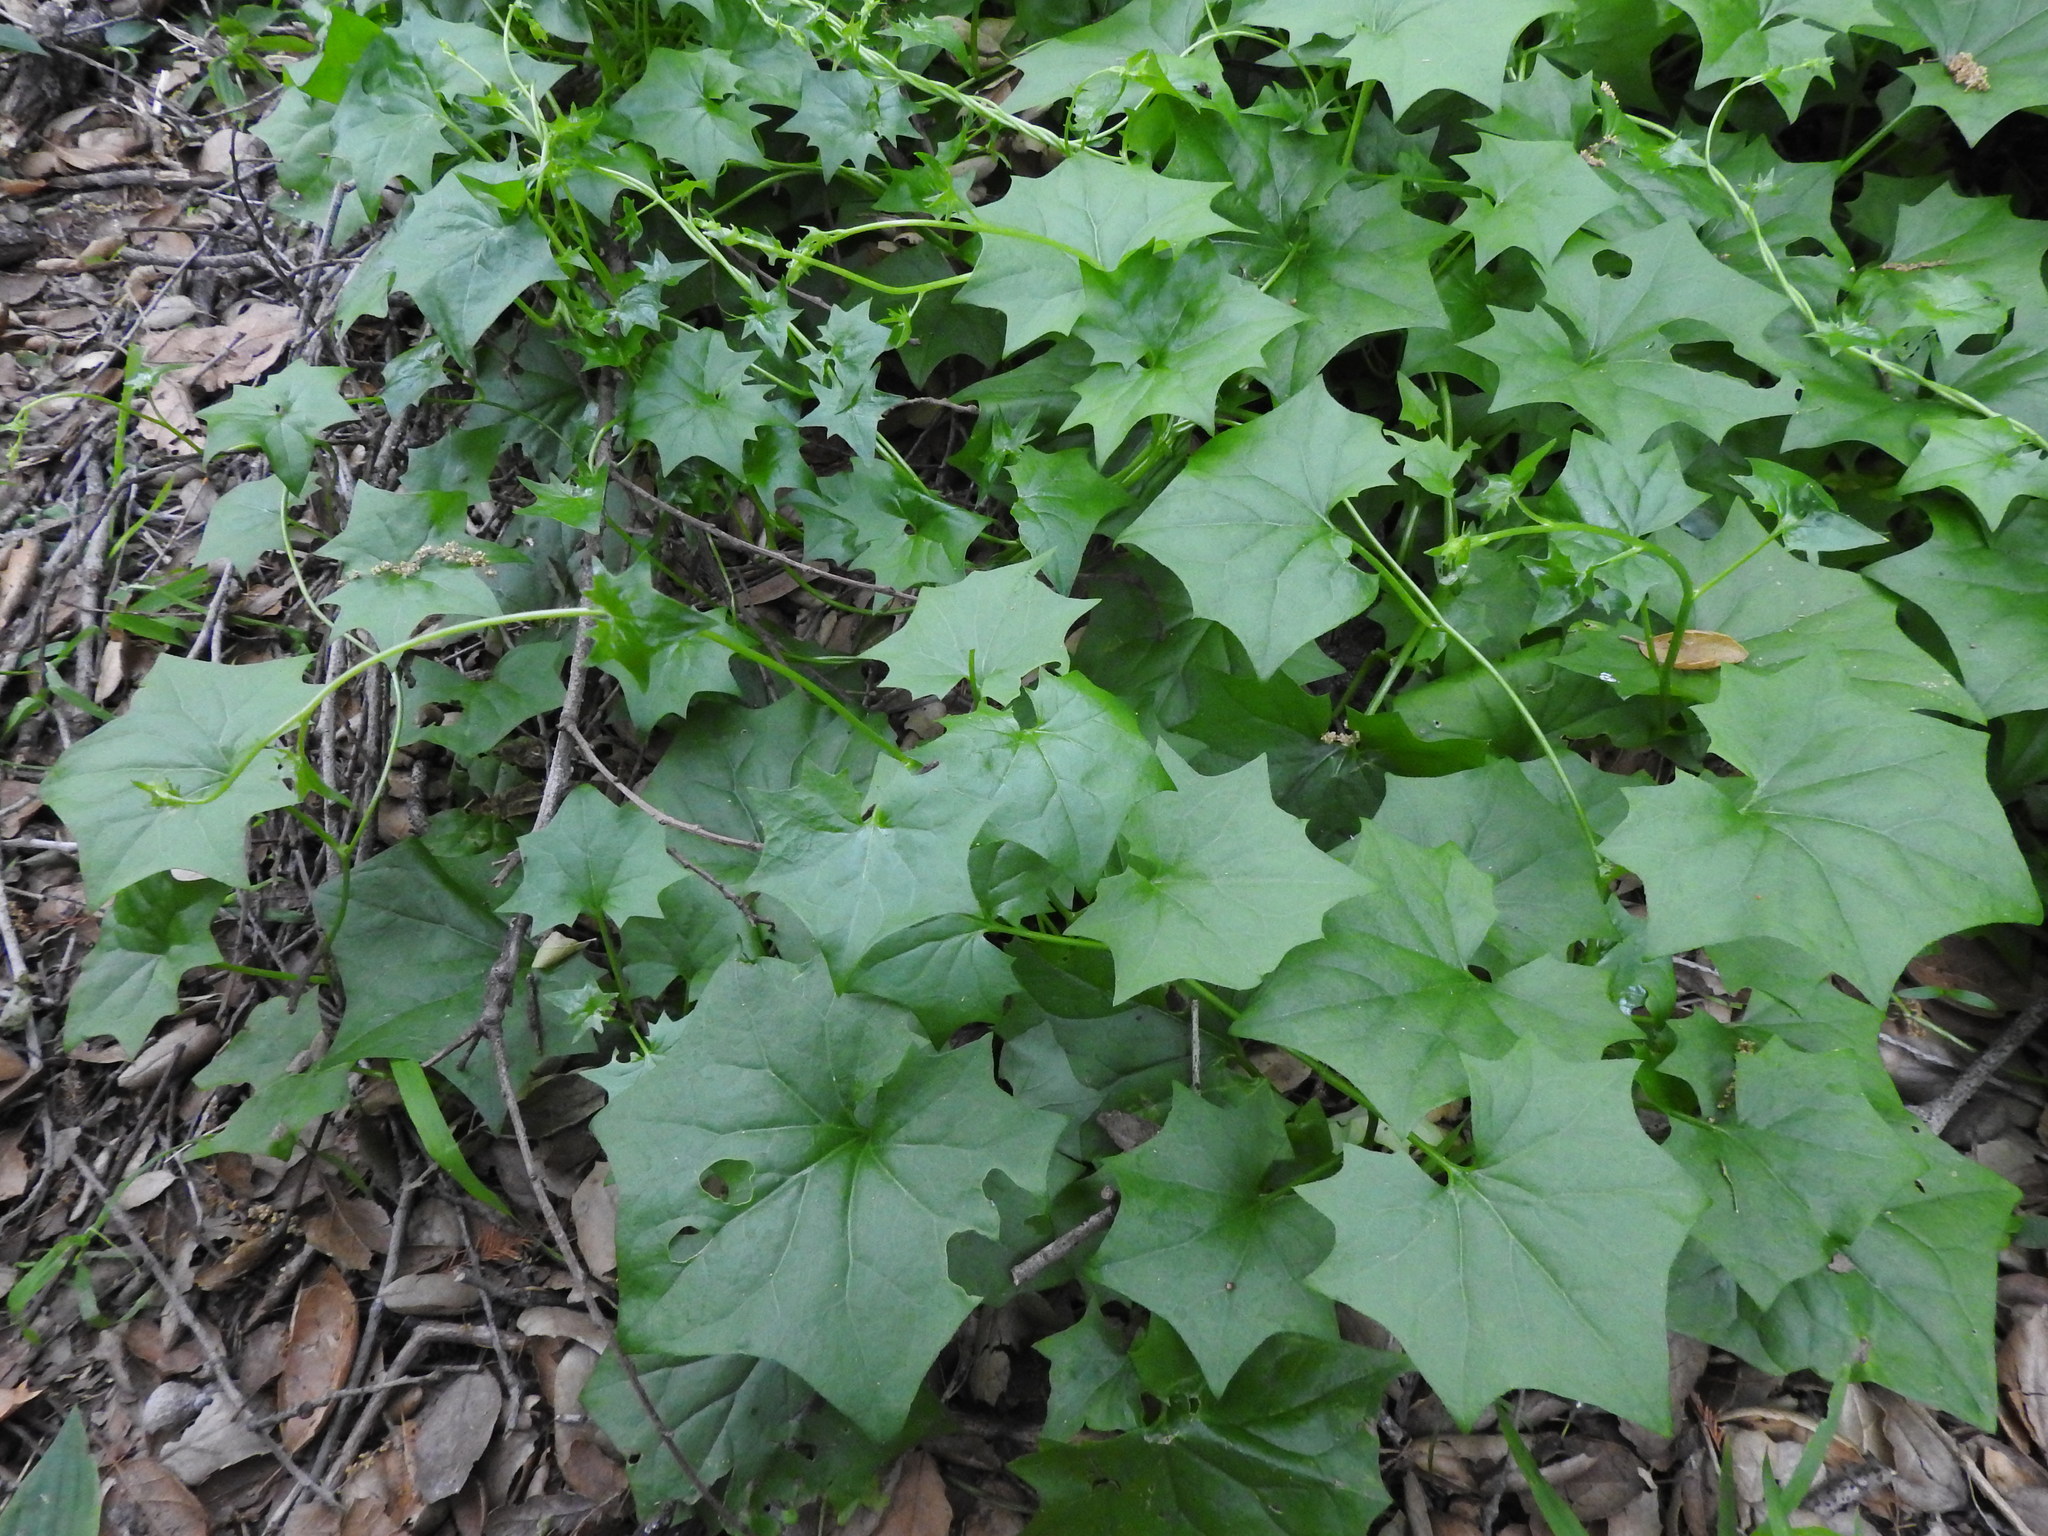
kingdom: Plantae
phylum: Tracheophyta
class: Magnoliopsida
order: Asterales
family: Asteraceae
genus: Delairea
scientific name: Delairea odorata
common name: Cape-ivy
